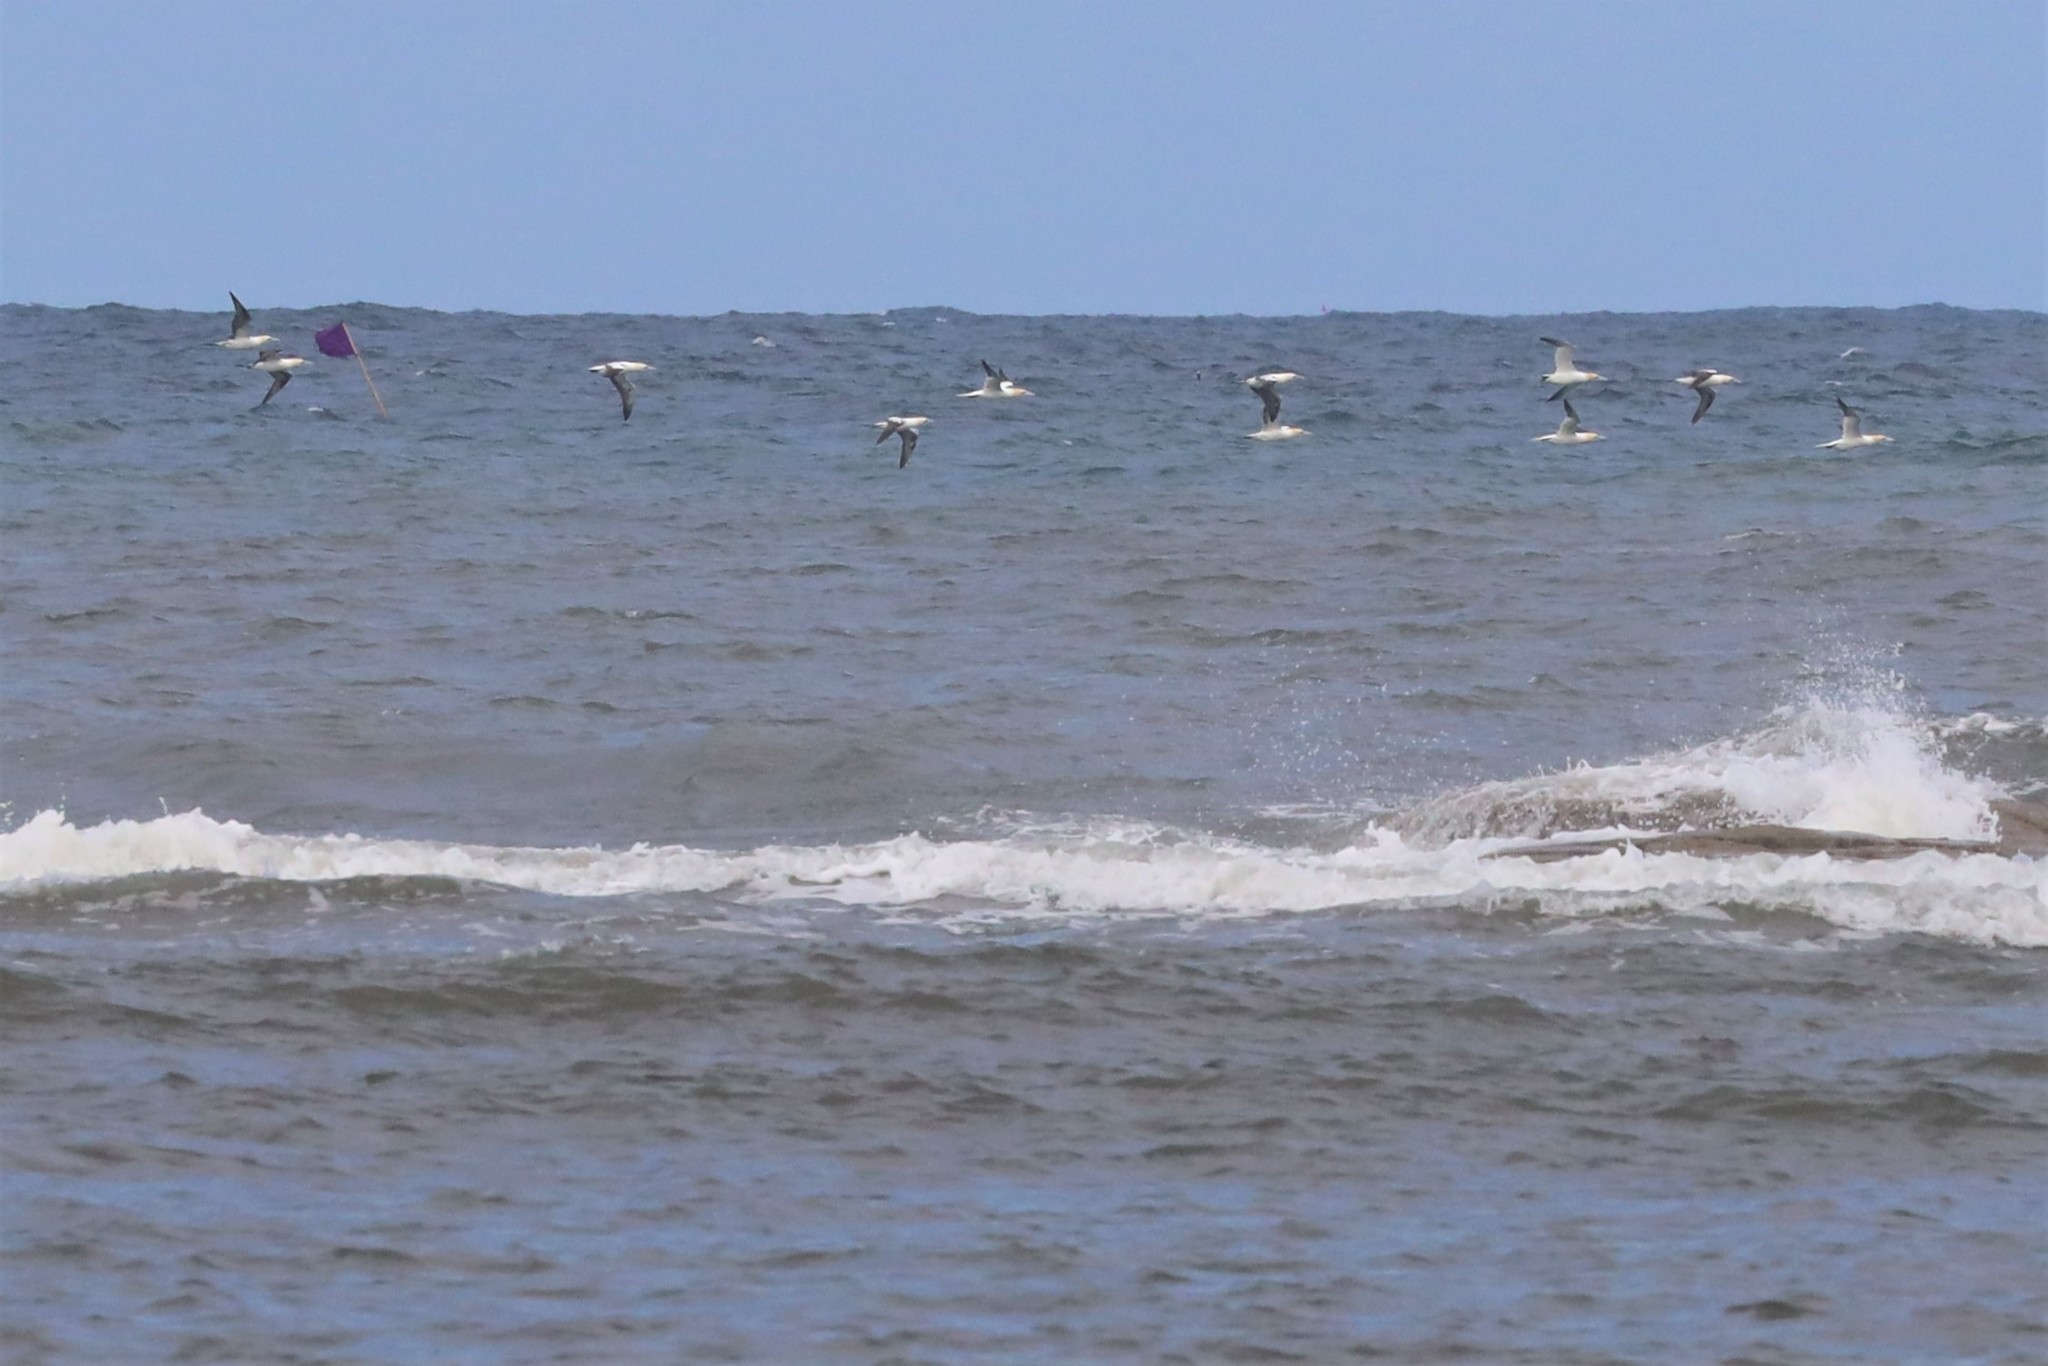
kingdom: Animalia
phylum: Chordata
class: Aves
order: Suliformes
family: Sulidae
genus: Morus
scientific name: Morus bassanus
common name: Northern gannet
